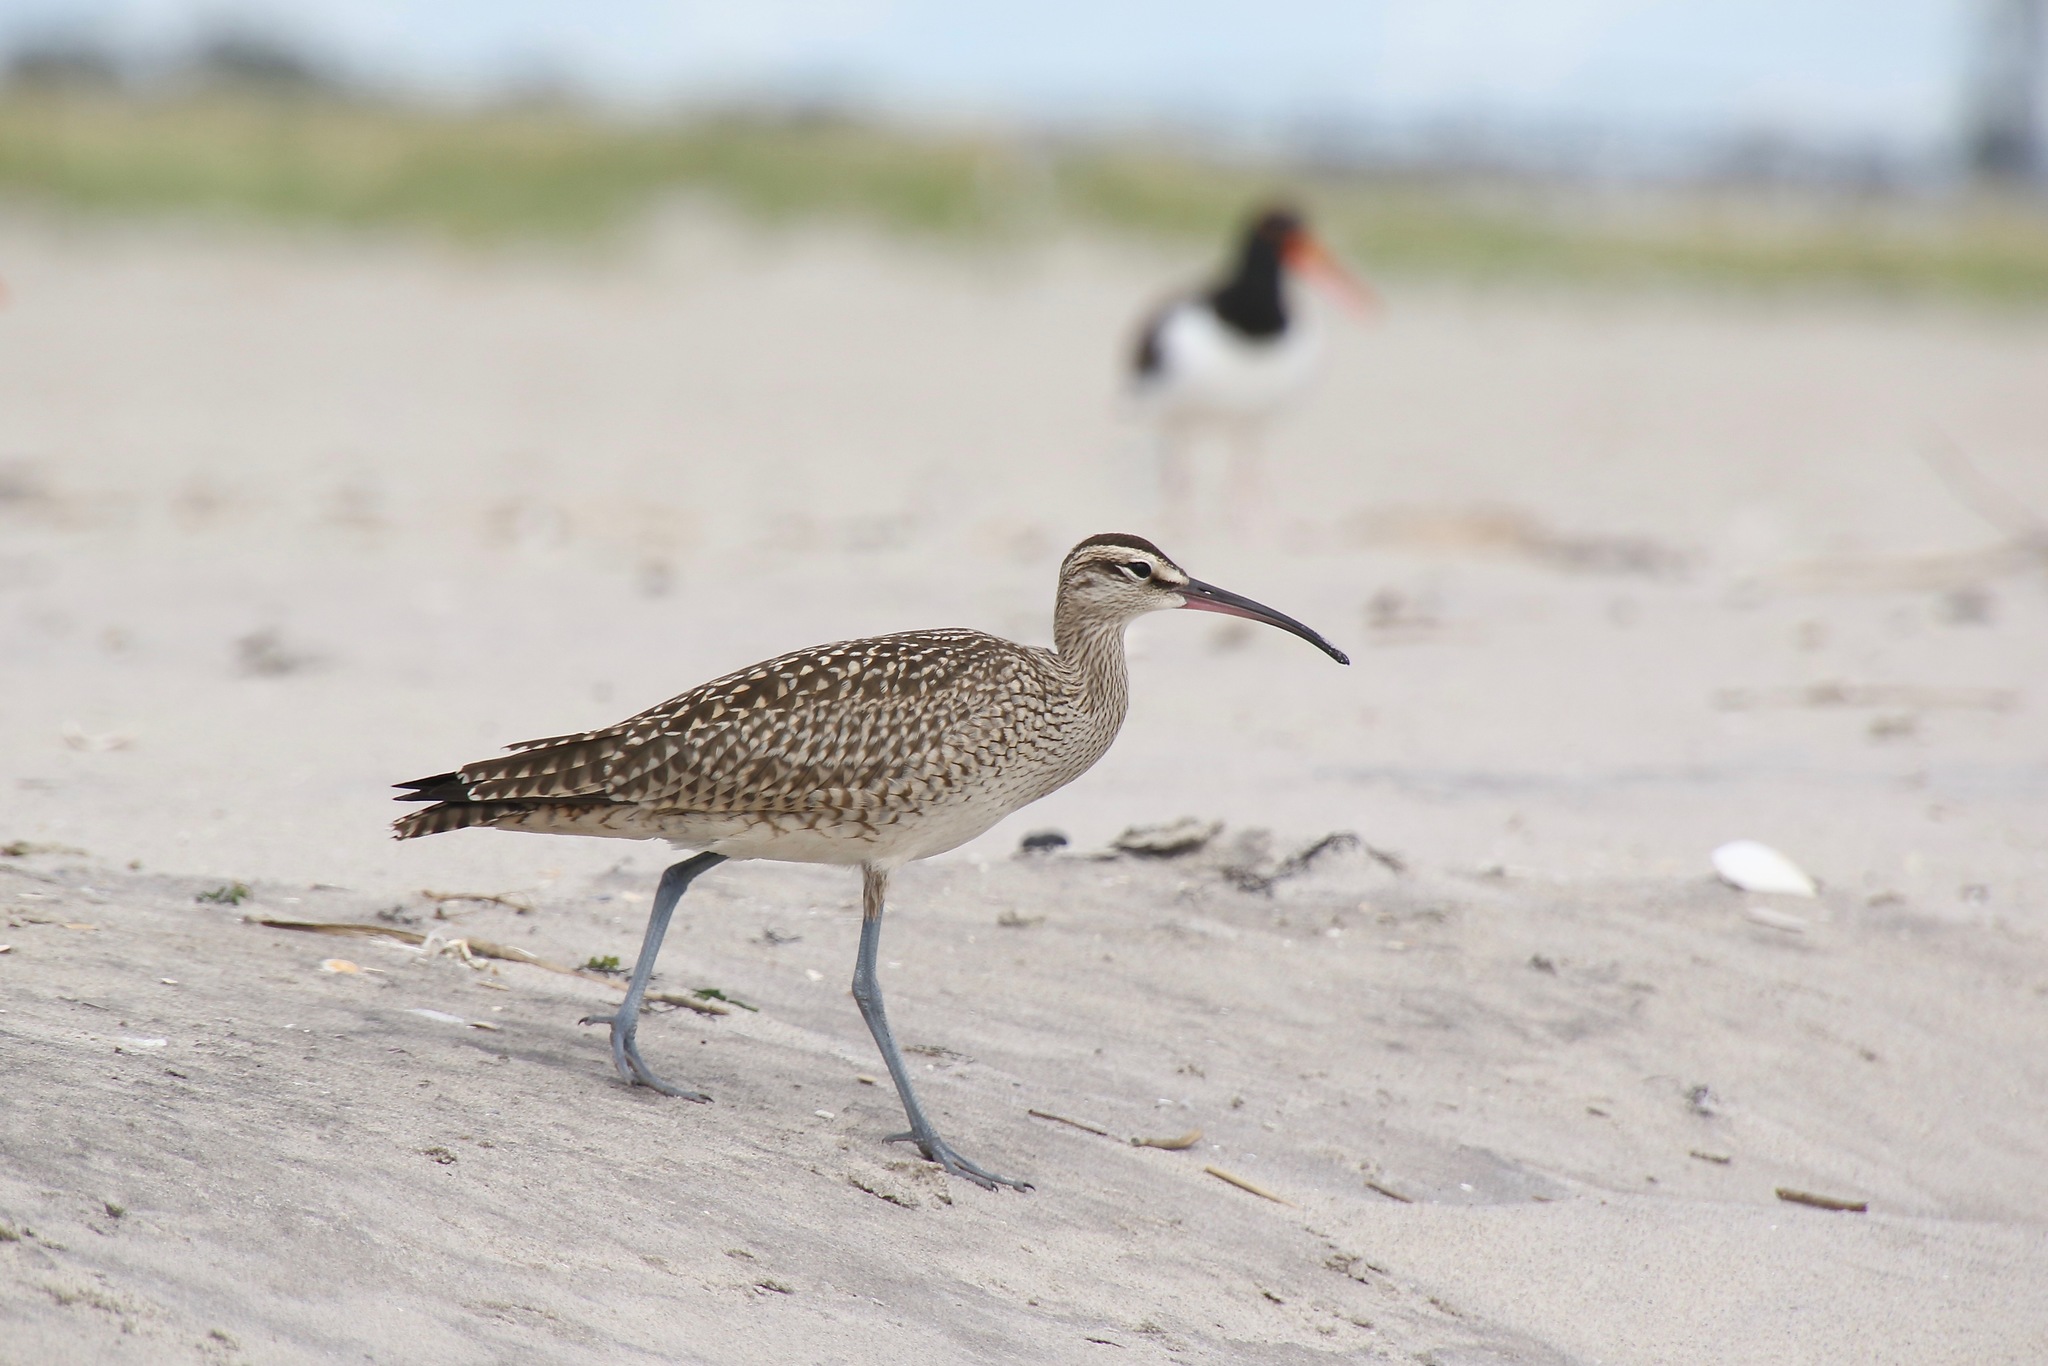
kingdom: Animalia
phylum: Chordata
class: Aves
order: Charadriiformes
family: Scolopacidae
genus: Numenius
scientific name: Numenius phaeopus
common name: Whimbrel
